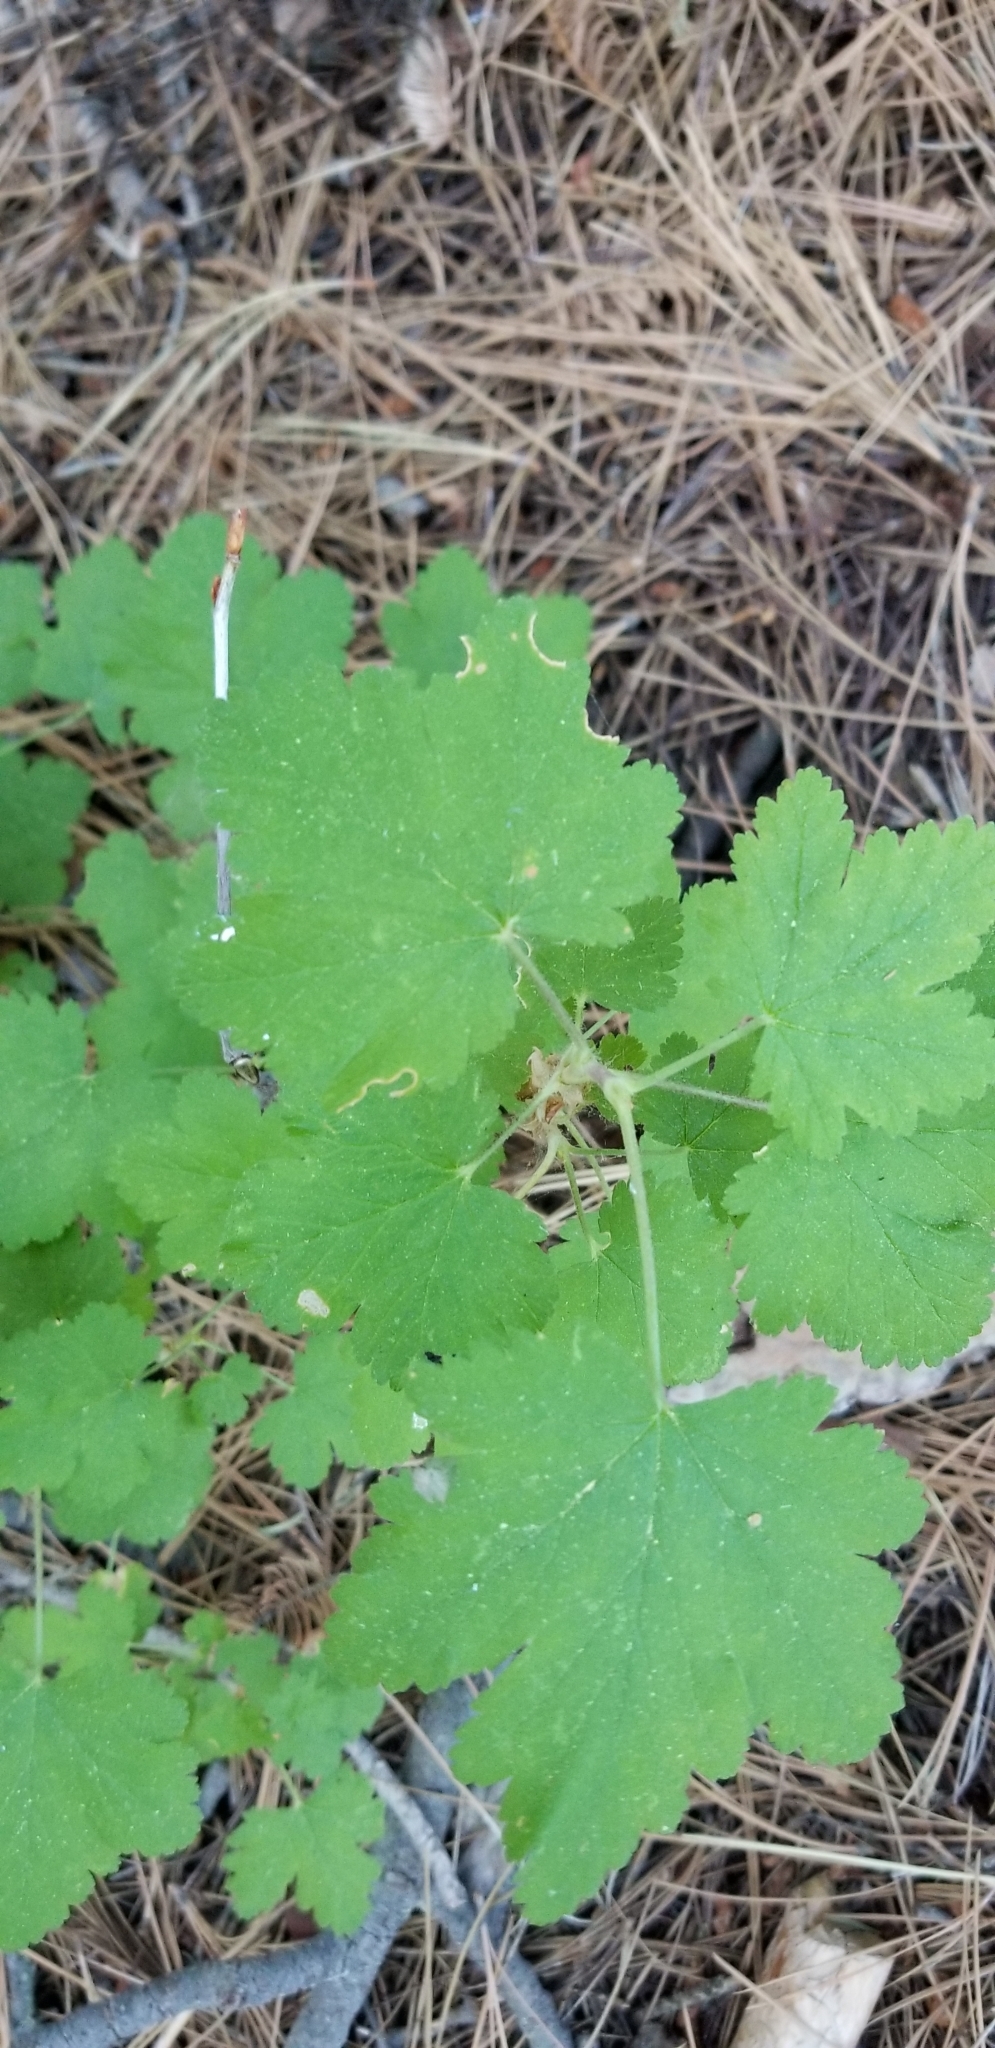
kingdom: Plantae
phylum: Tracheophyta
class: Magnoliopsida
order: Saxifragales
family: Grossulariaceae
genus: Ribes
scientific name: Ribes nevadense
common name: Mountain pink currant
